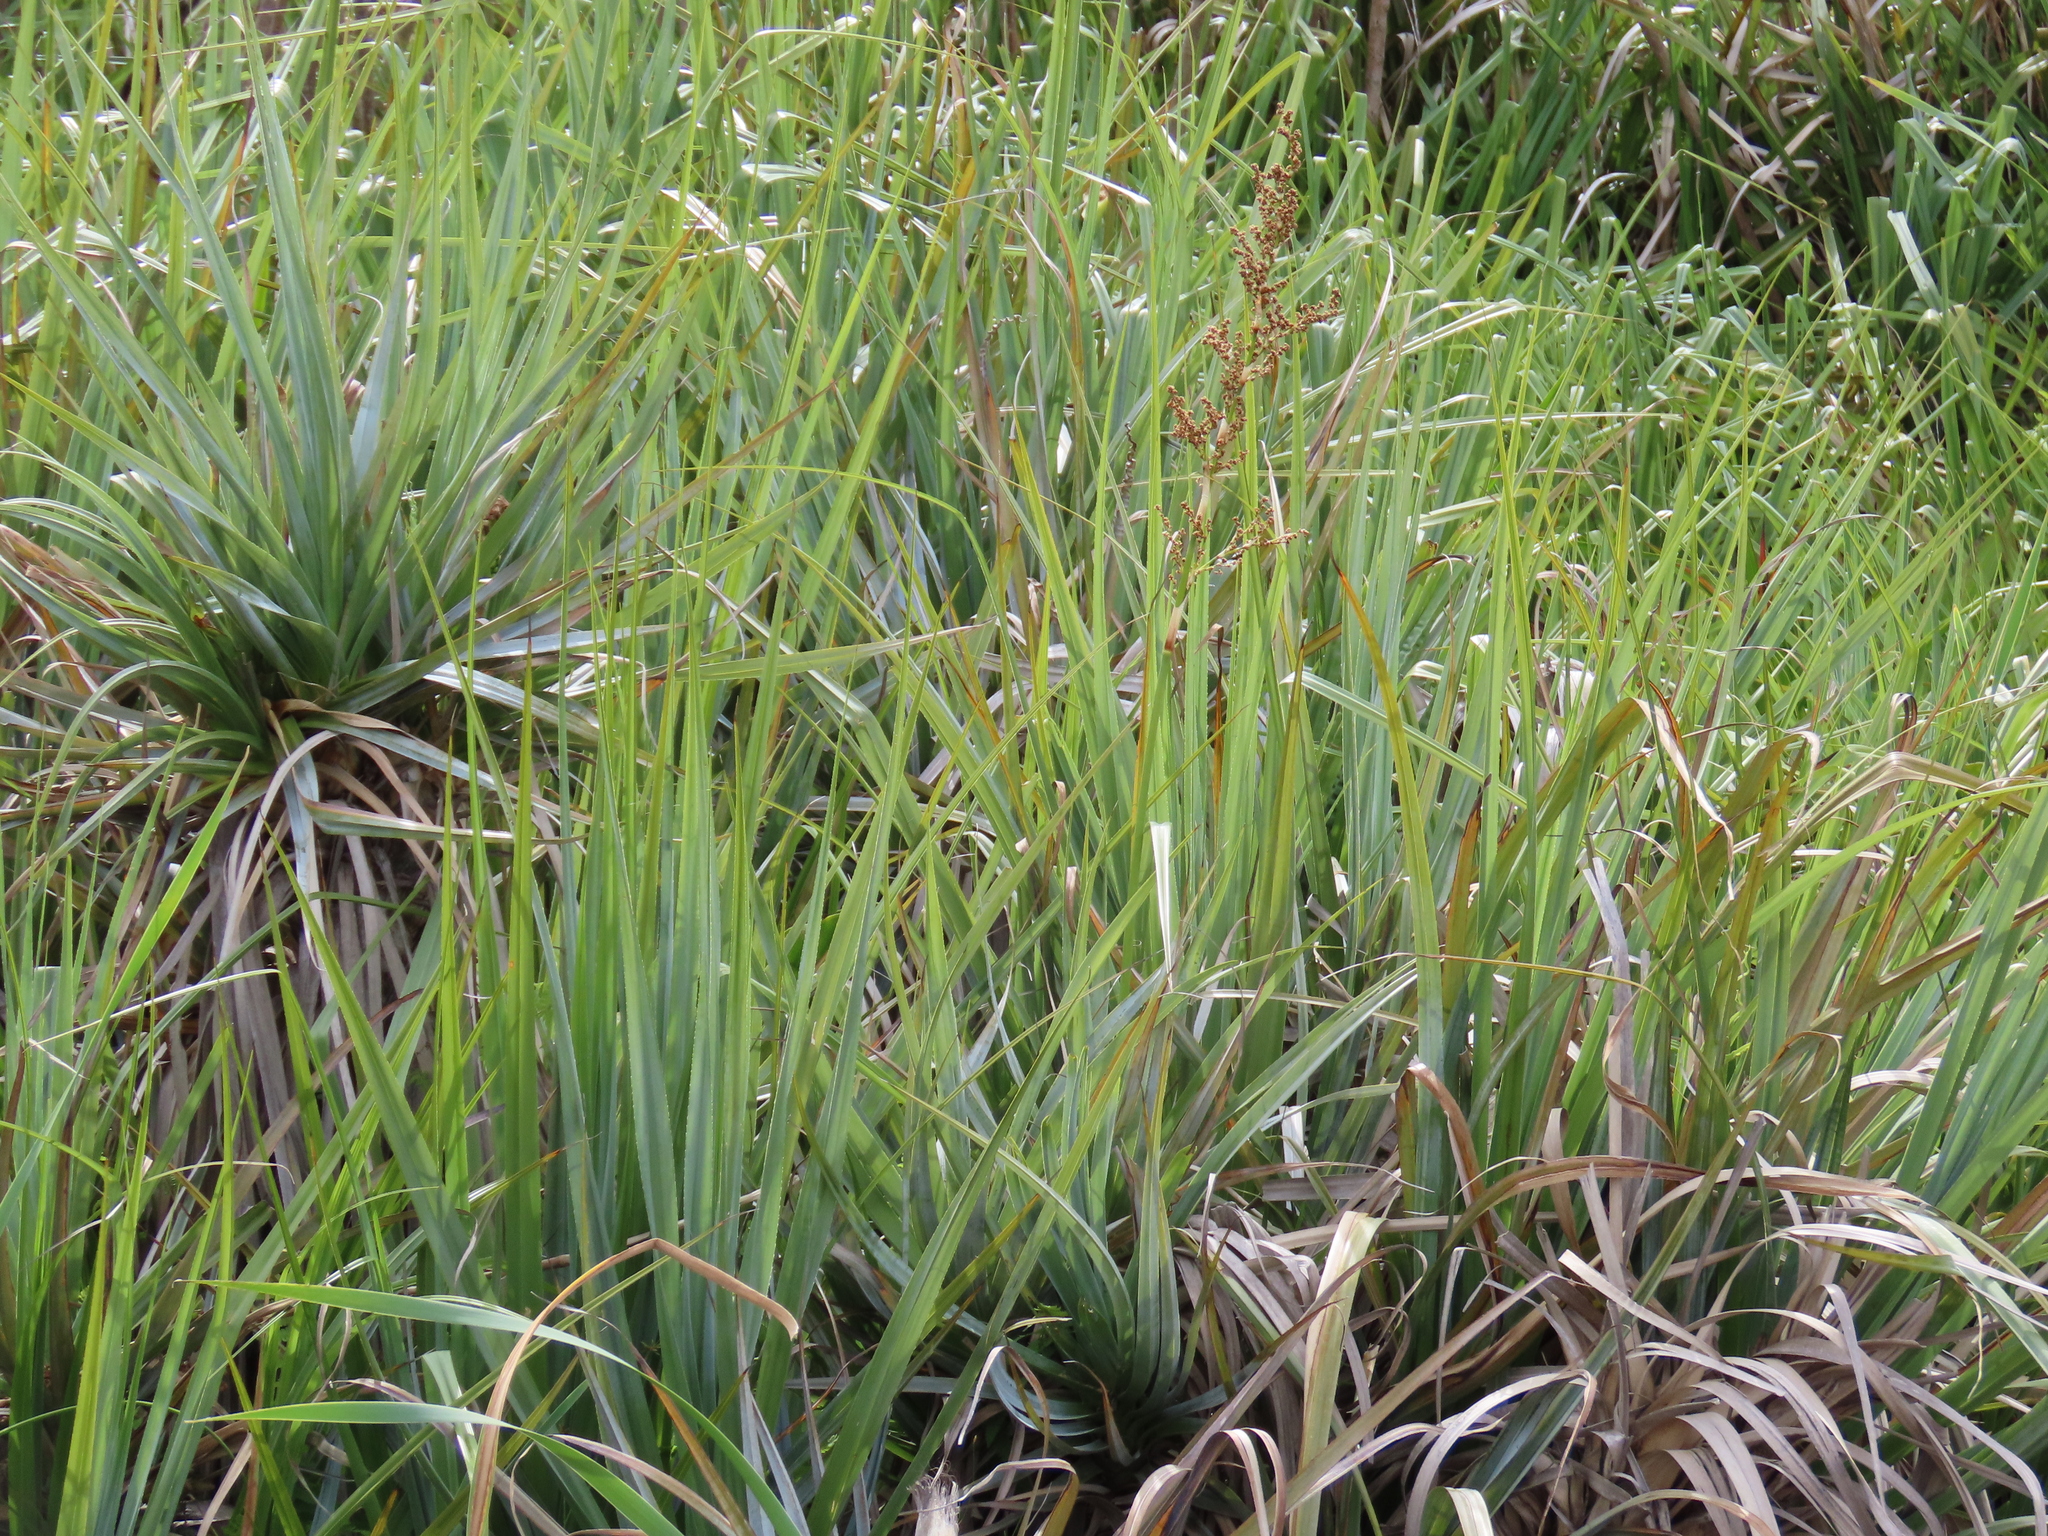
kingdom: Plantae
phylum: Tracheophyta
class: Liliopsida
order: Poales
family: Thurniaceae
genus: Prionium
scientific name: Prionium serratum
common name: Palmiet
